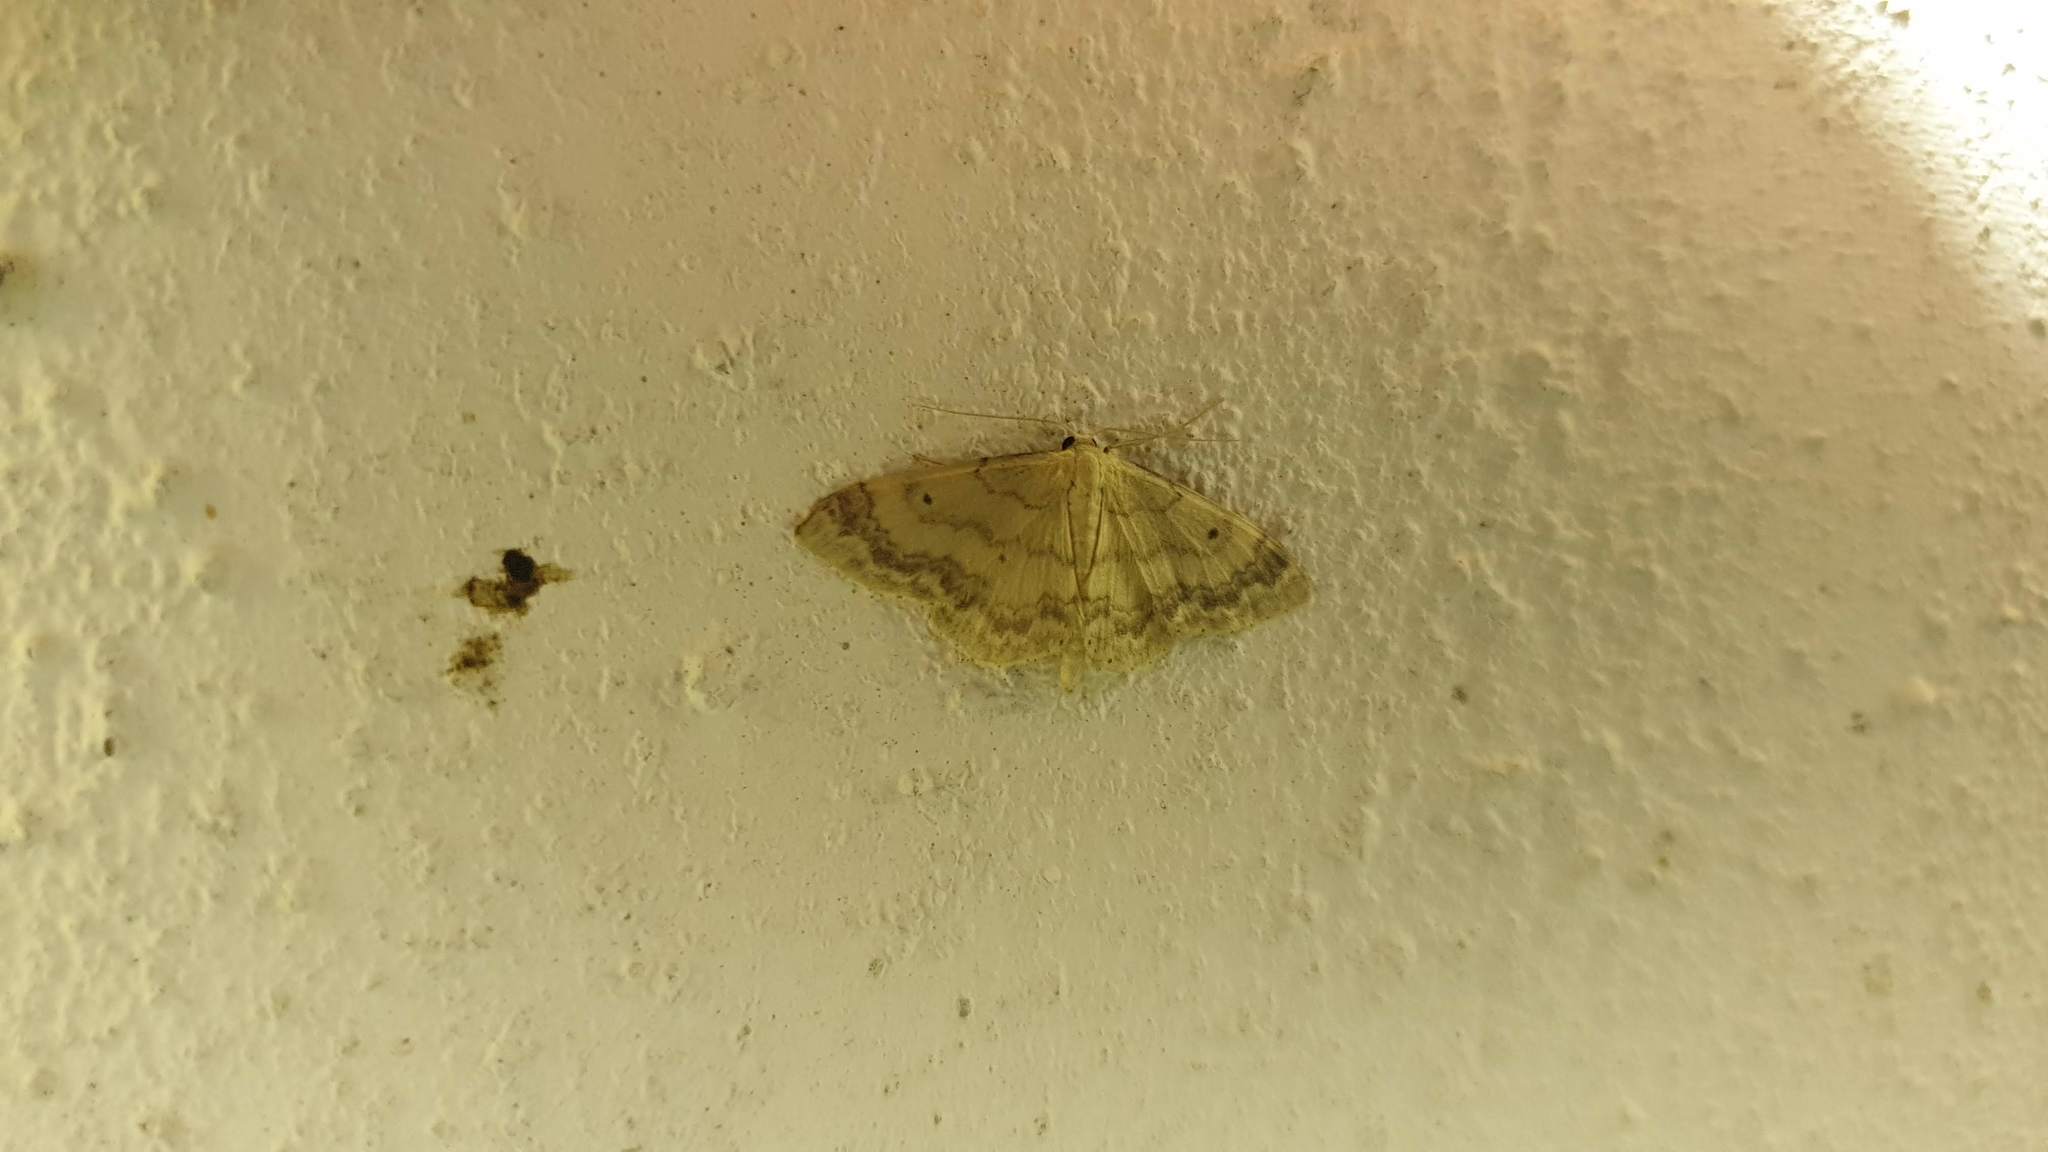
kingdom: Animalia
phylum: Arthropoda
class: Insecta
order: Lepidoptera
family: Geometridae
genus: Idaea
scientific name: Idaea biselata
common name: Small fan-footed wave
